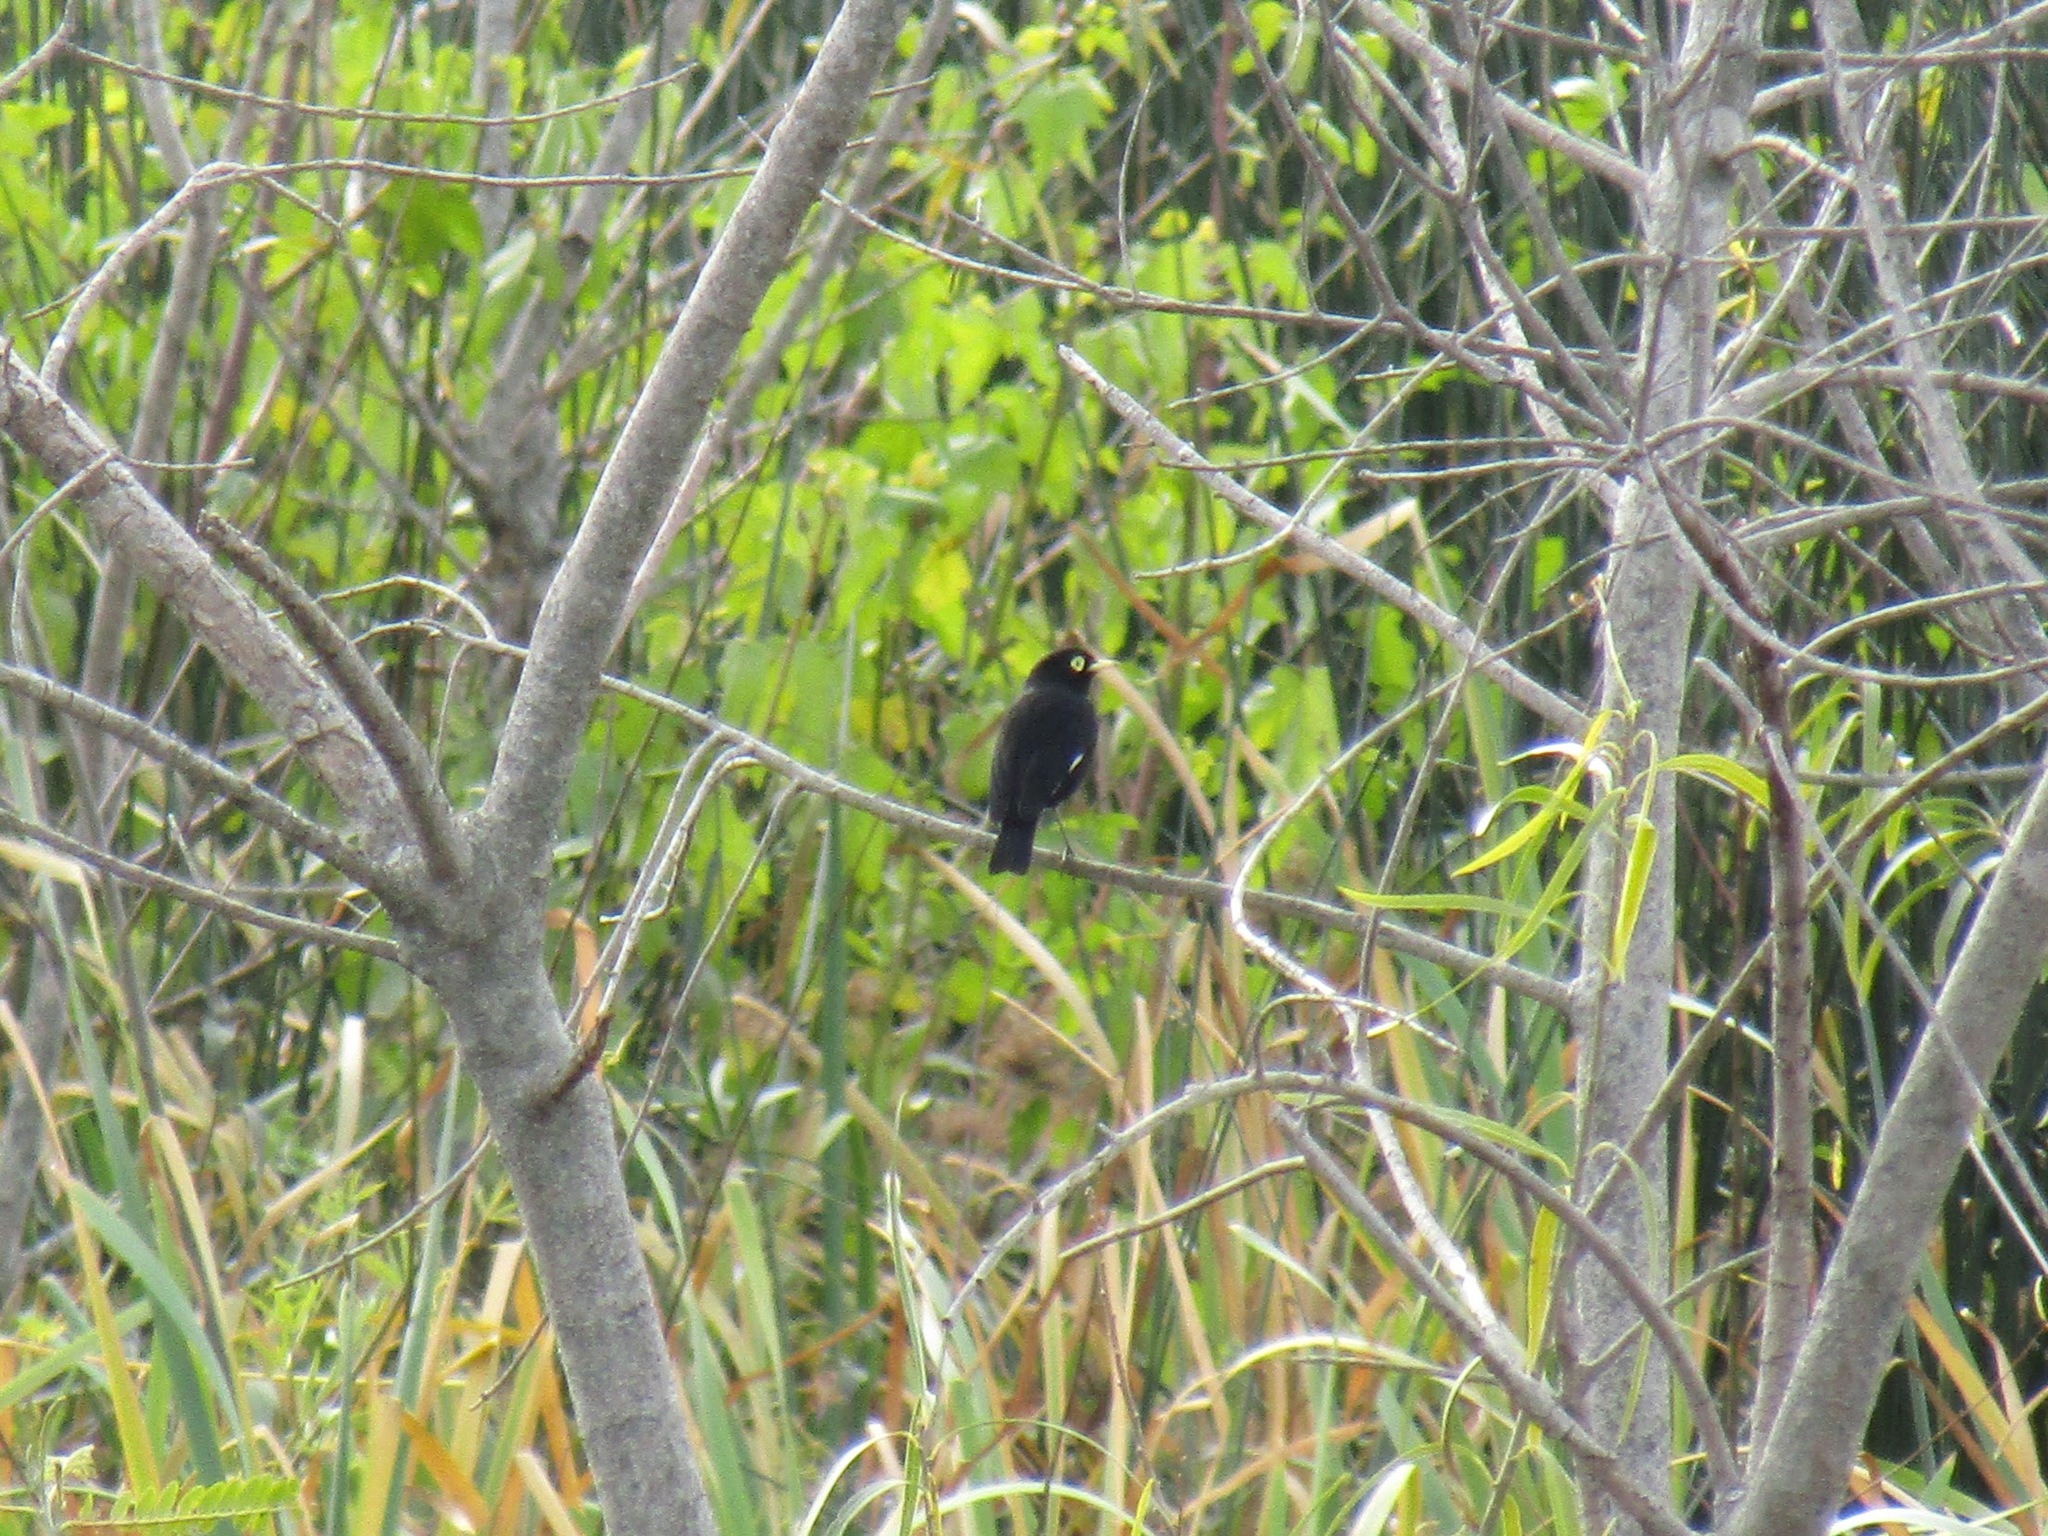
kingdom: Animalia
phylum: Chordata
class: Aves
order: Passeriformes
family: Tyrannidae
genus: Hymenops
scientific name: Hymenops perspicillatus
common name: Spectacled tyrant
